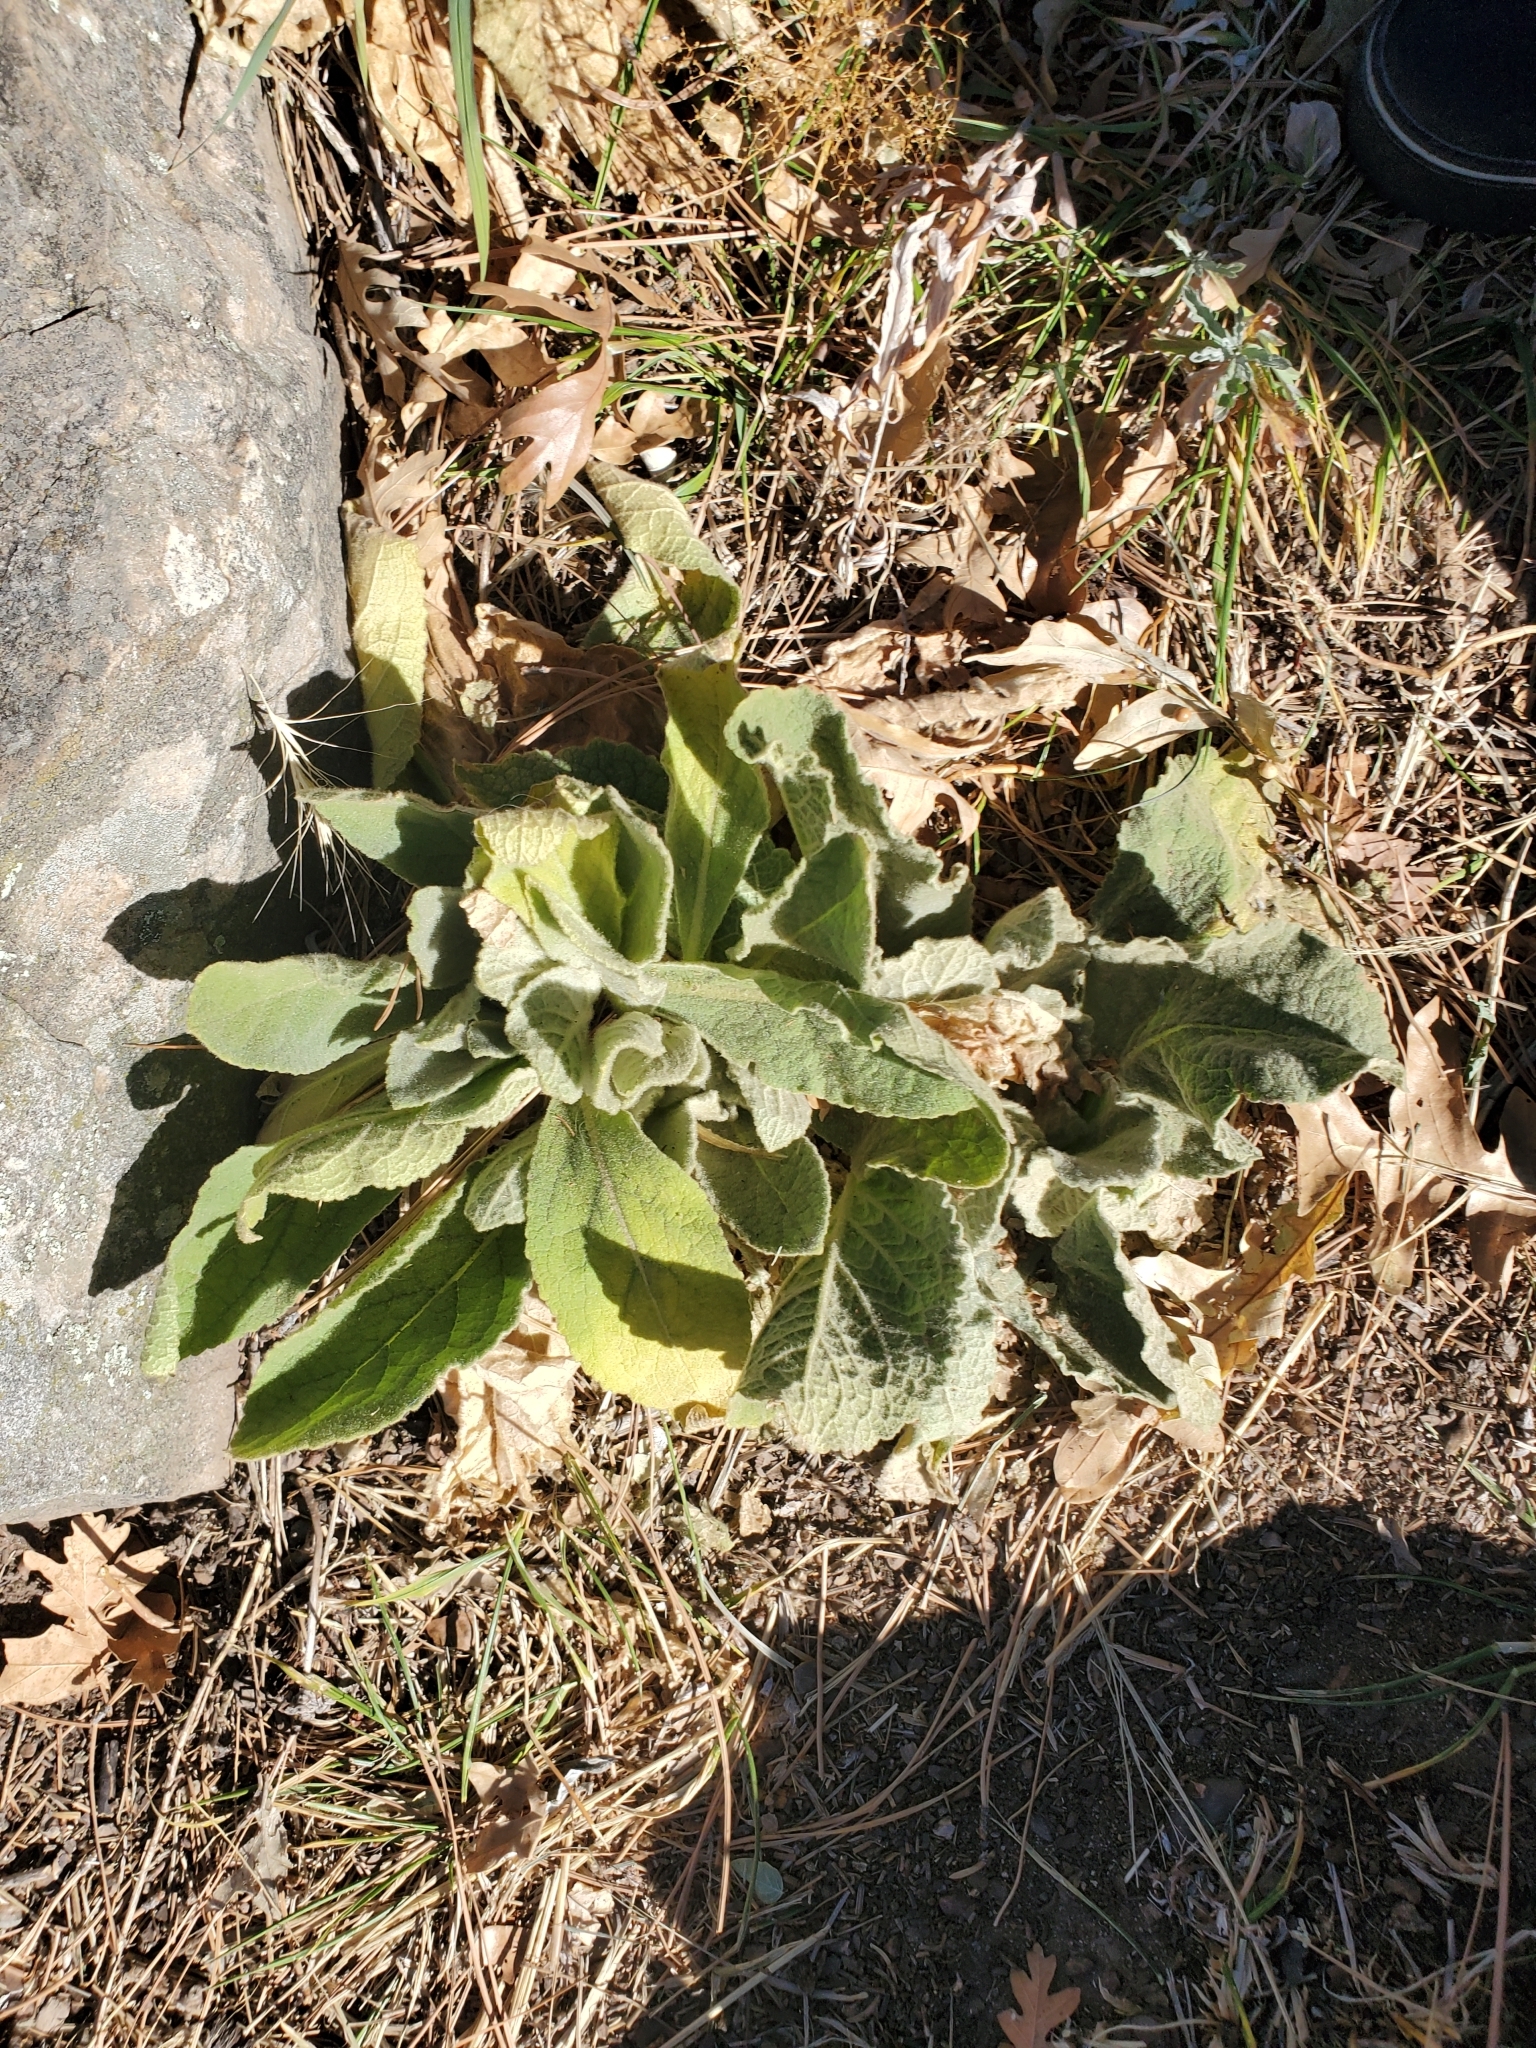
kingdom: Plantae
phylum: Tracheophyta
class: Magnoliopsida
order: Lamiales
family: Scrophulariaceae
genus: Verbascum
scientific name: Verbascum thapsus
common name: Common mullein
